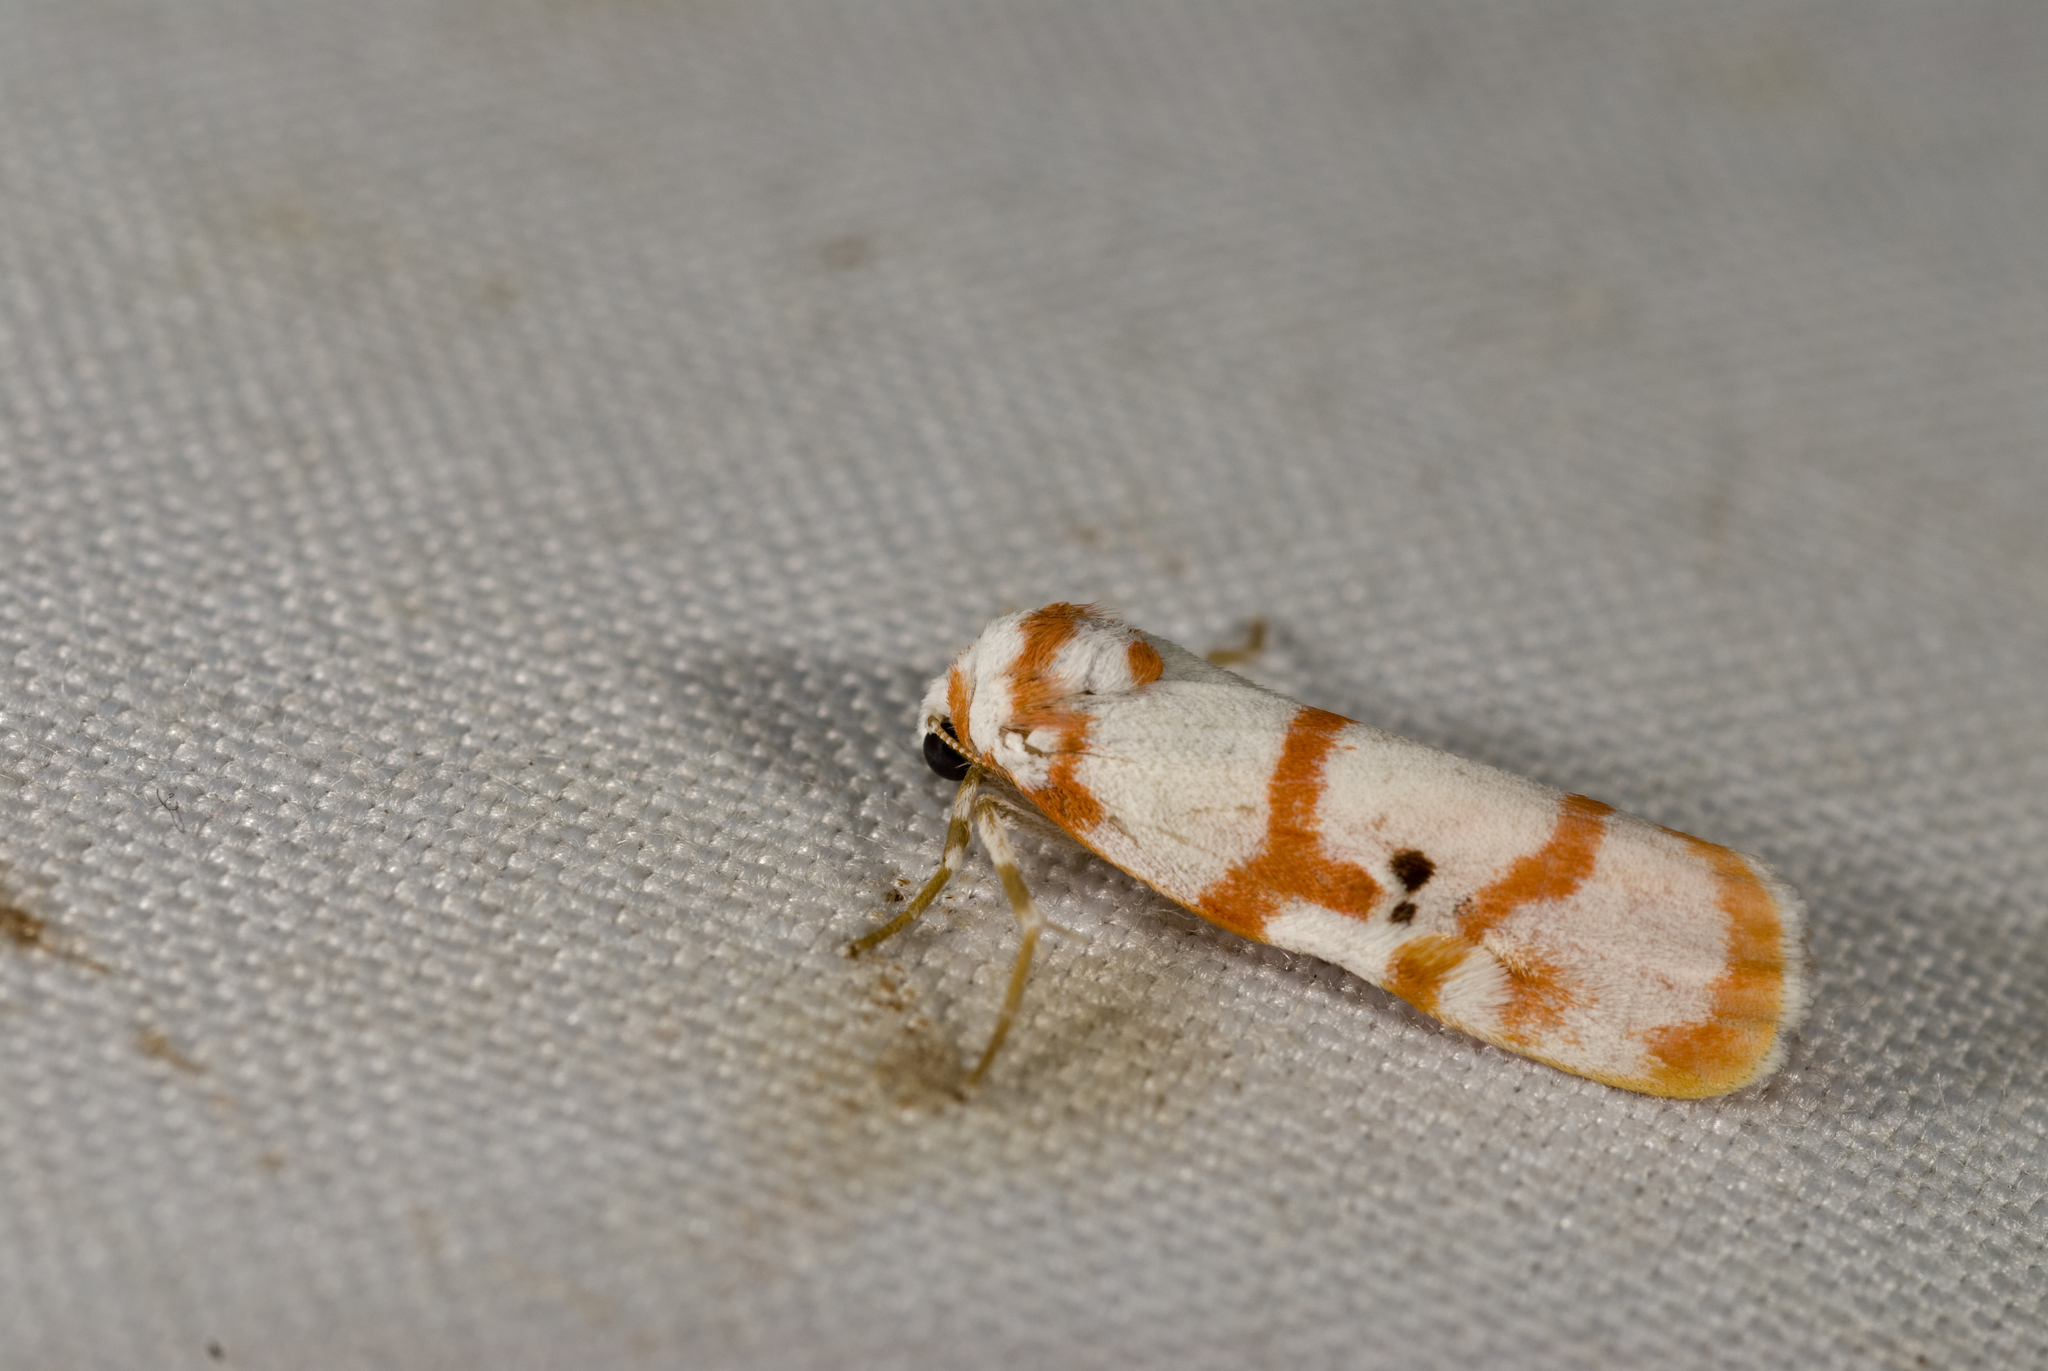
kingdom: Animalia
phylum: Arthropoda
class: Insecta
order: Lepidoptera
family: Erebidae
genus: Cyana
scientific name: Cyana hamata
